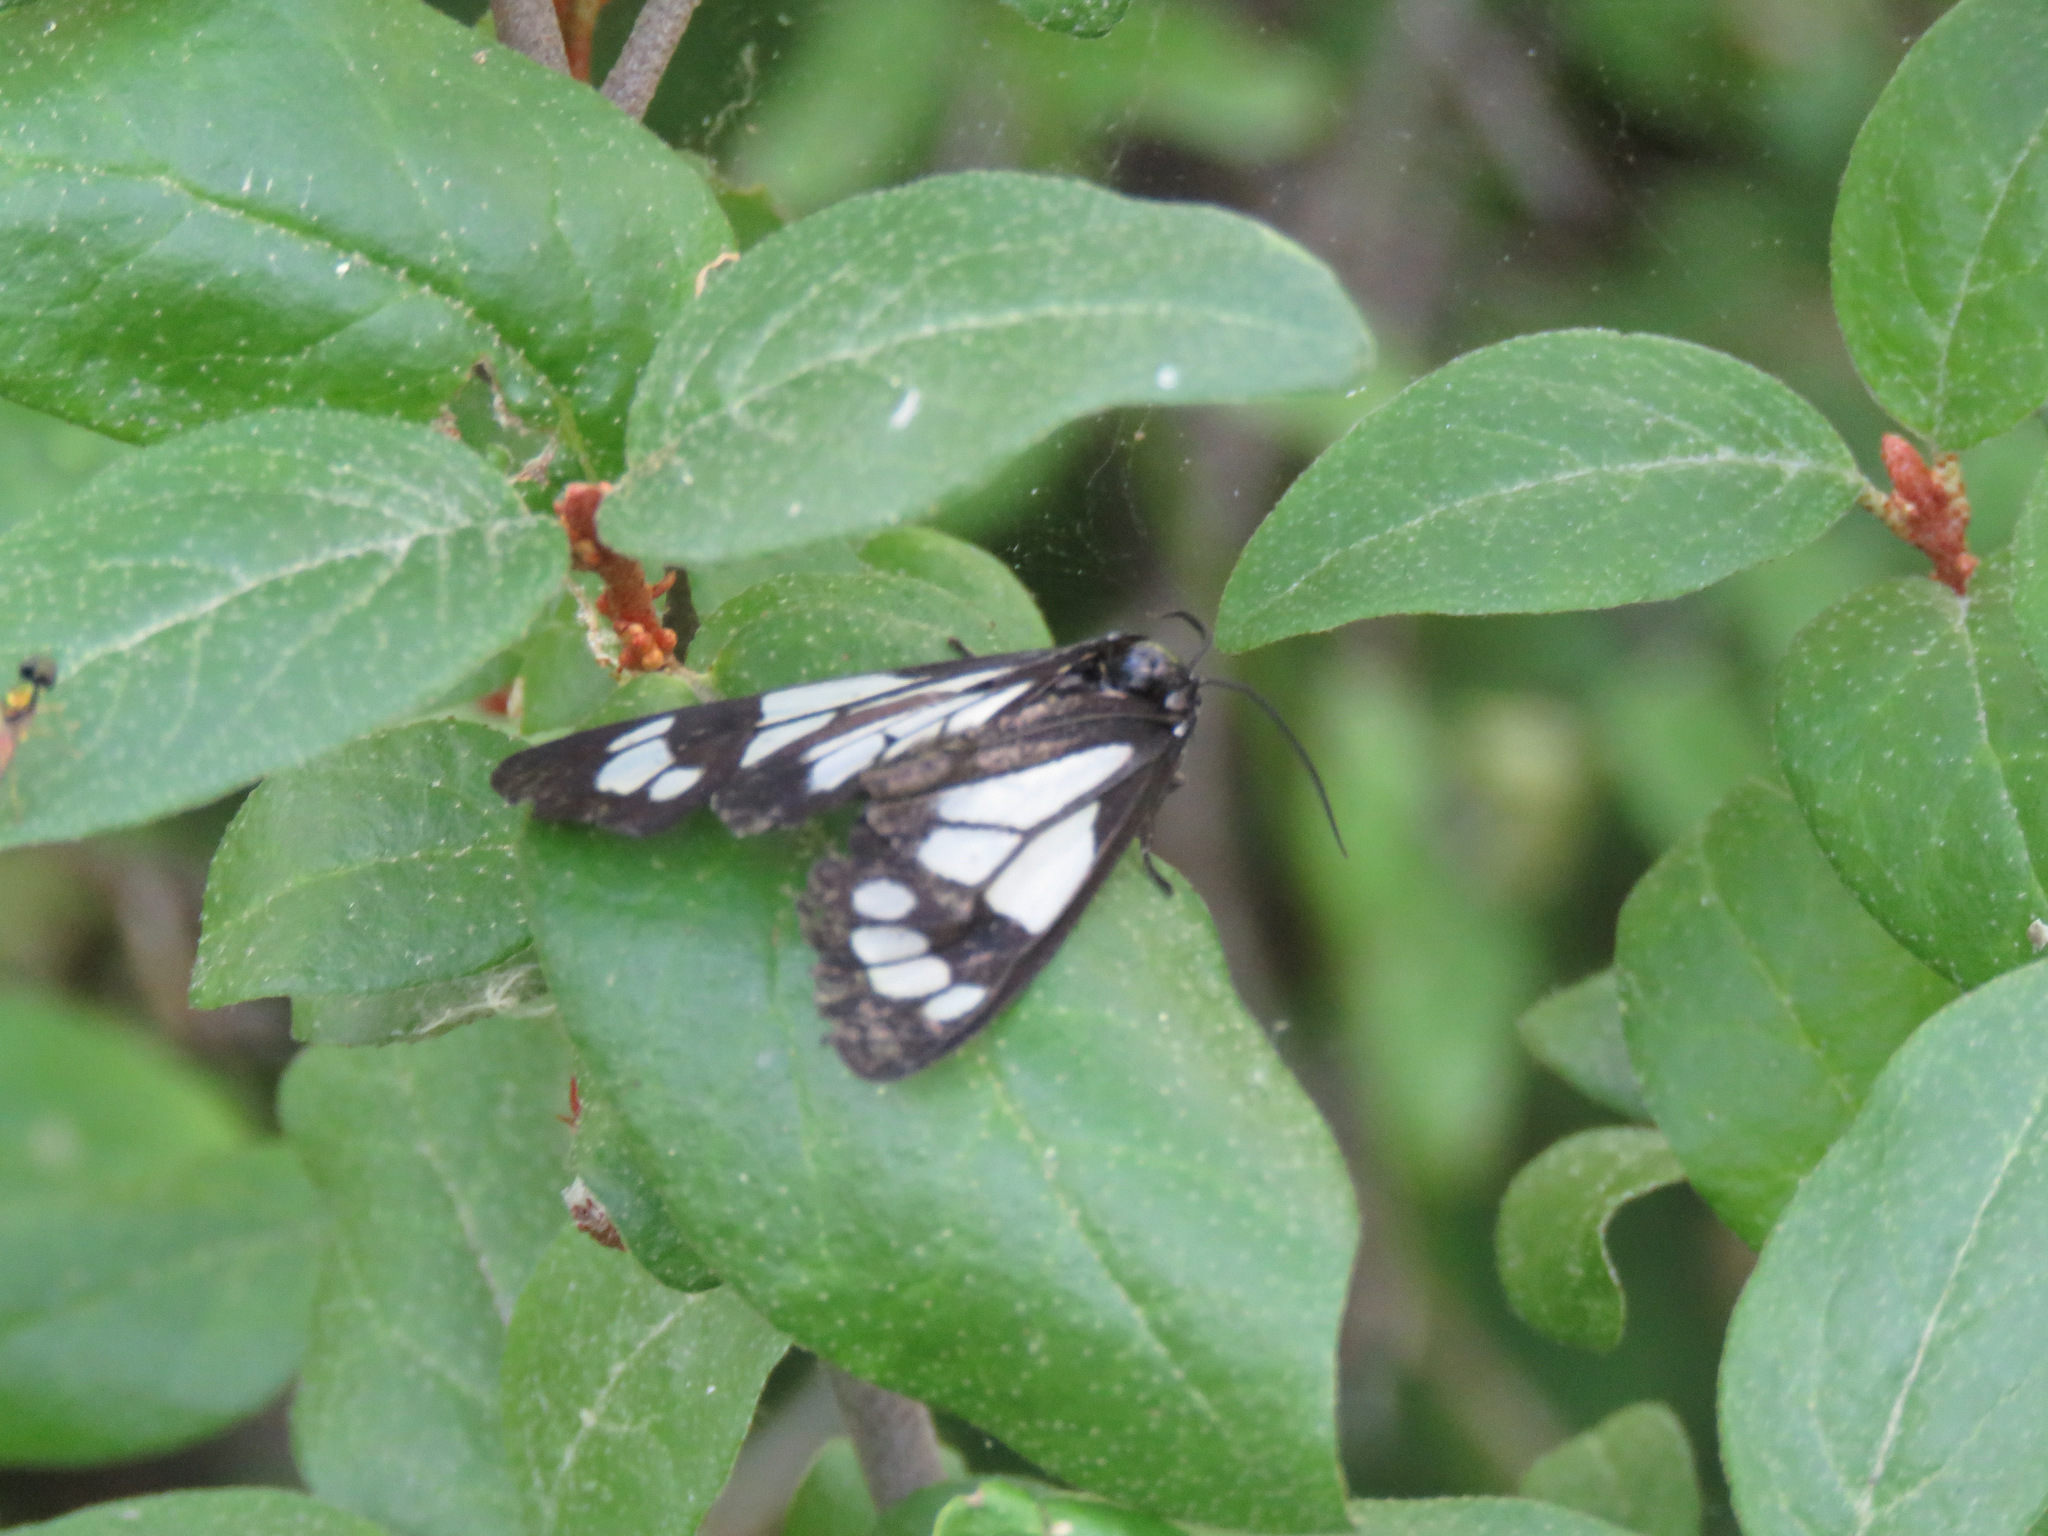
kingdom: Animalia
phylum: Arthropoda
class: Insecta
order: Lepidoptera
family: Erebidae
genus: Gnophaela
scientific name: Gnophaela vermiculata
